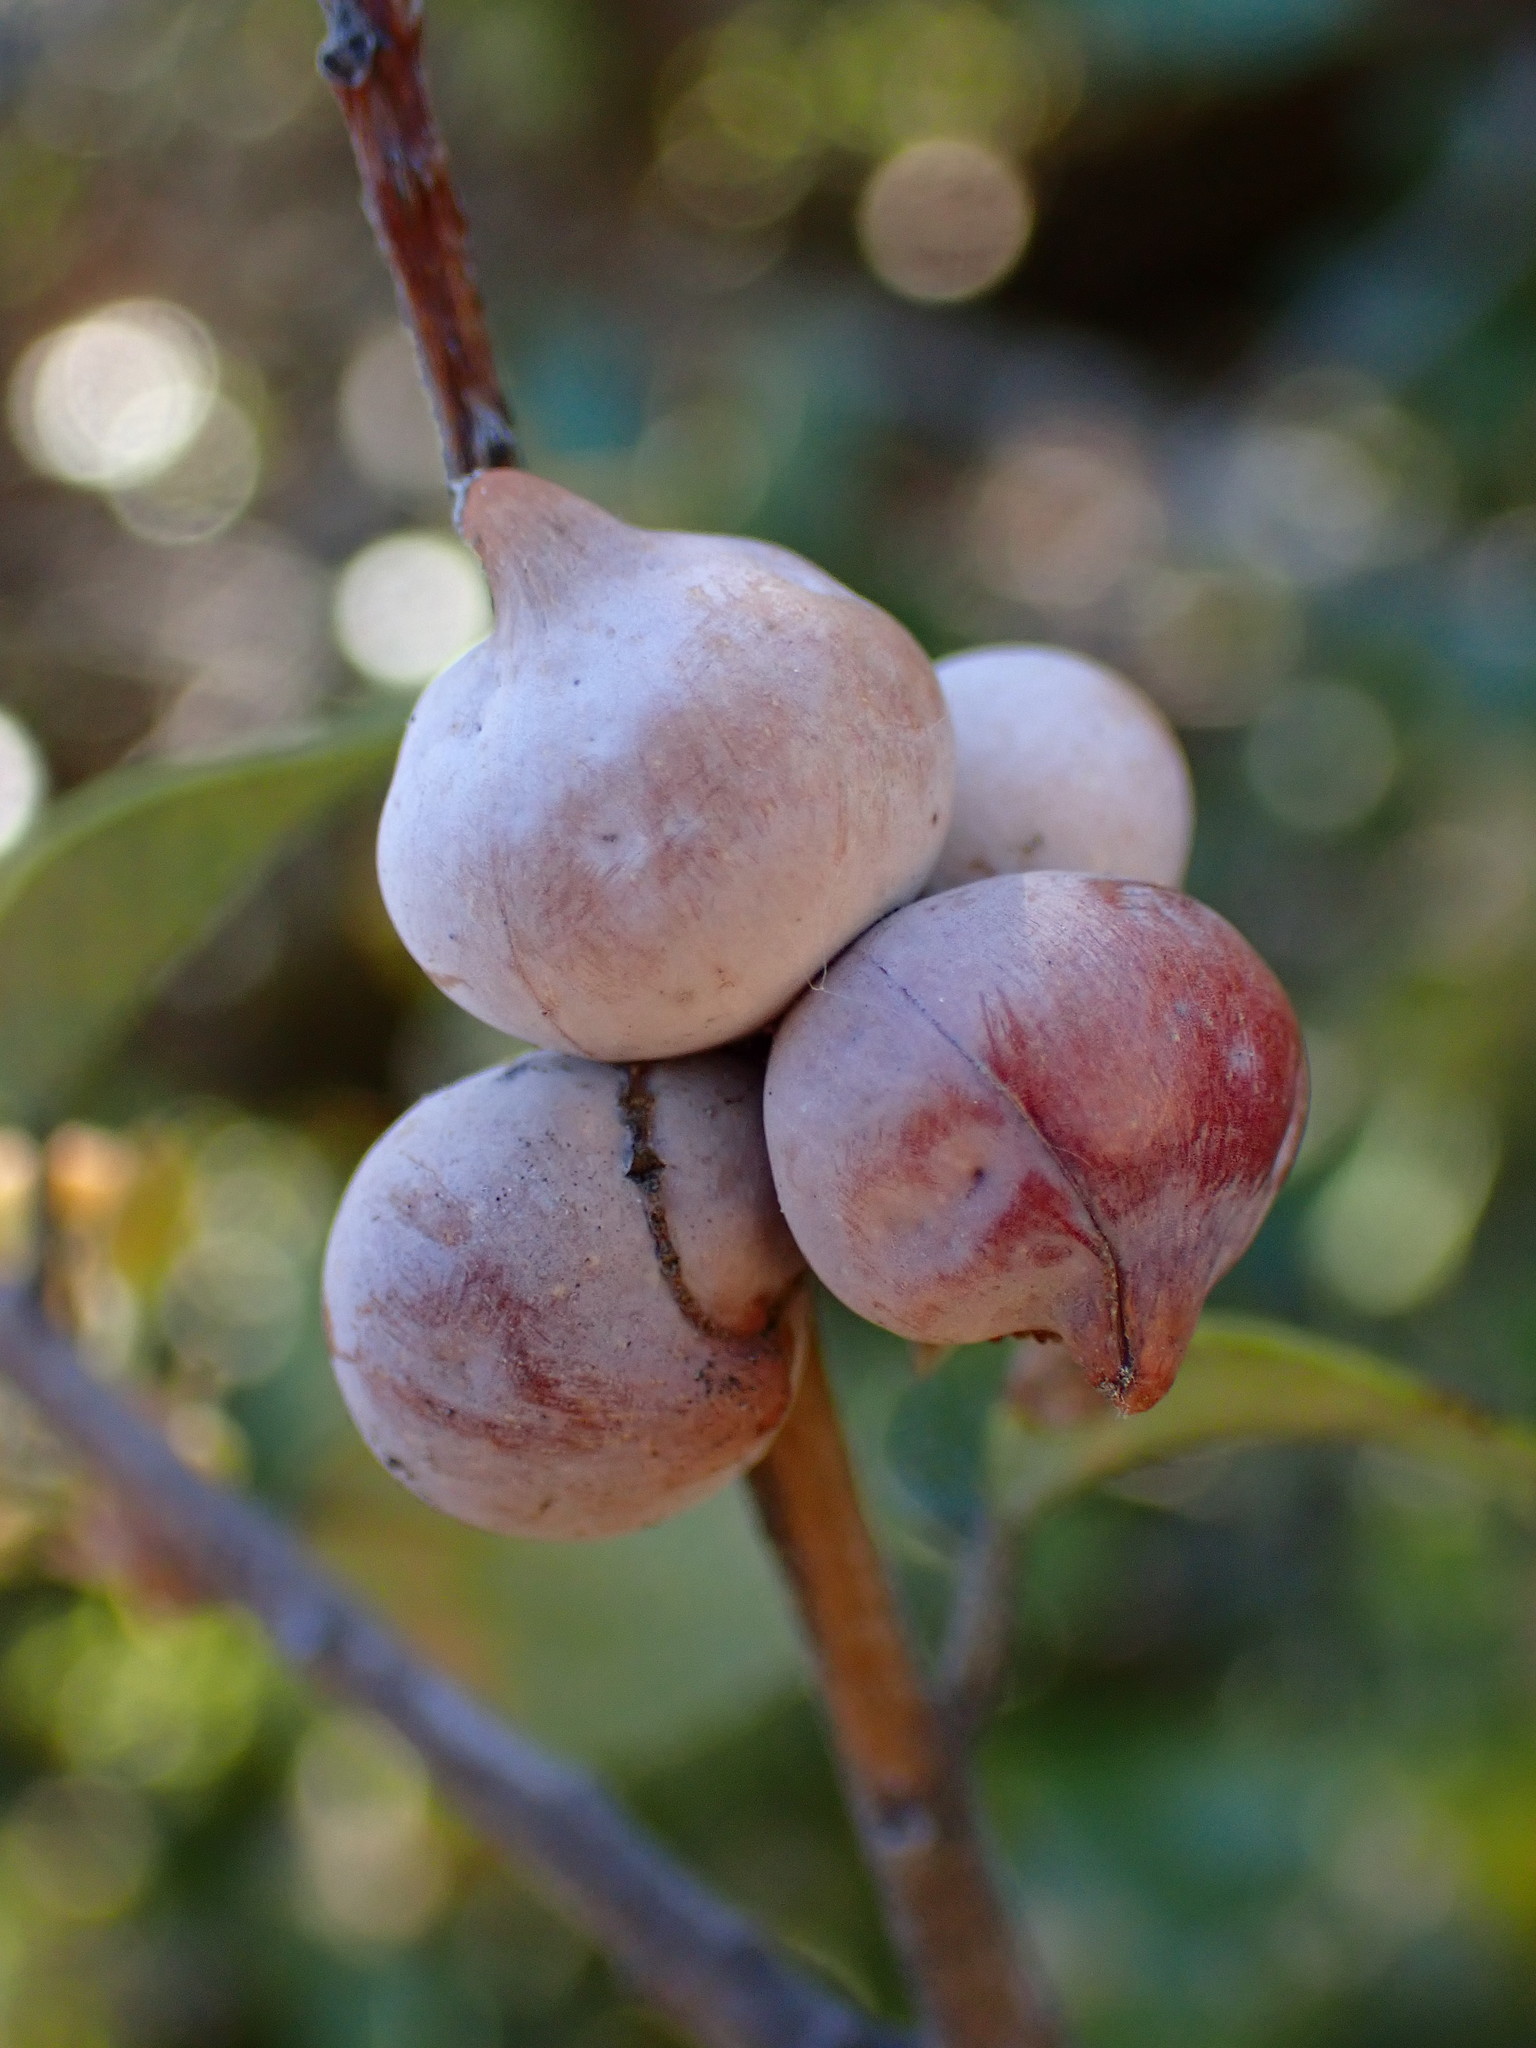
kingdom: Animalia
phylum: Arthropoda
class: Insecta
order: Hymenoptera
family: Cynipidae
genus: Heteroecus
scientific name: Heteroecus
